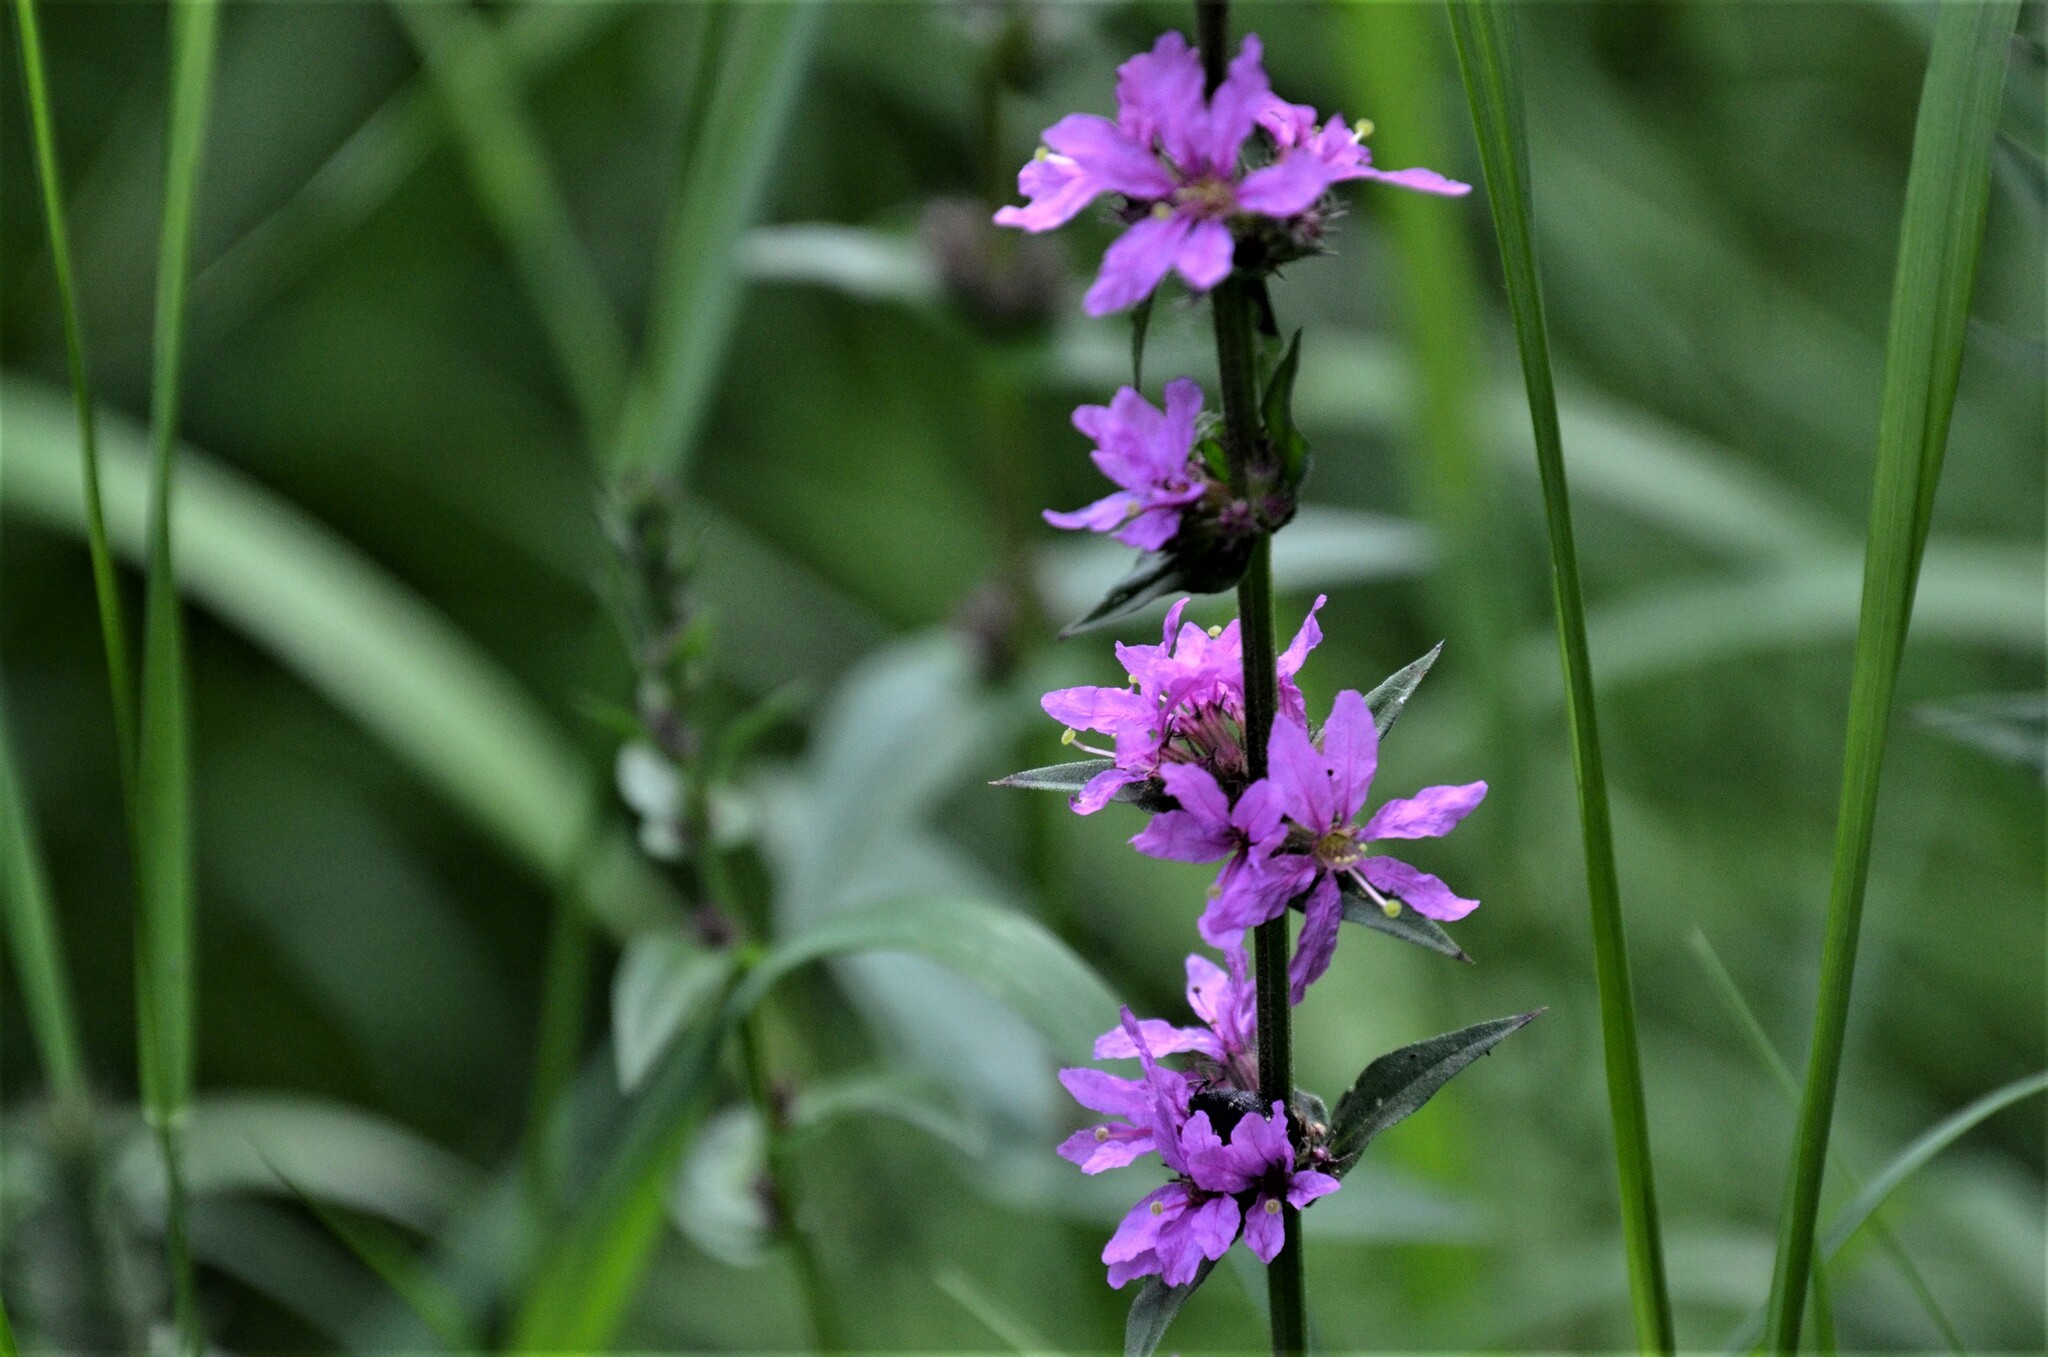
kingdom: Plantae
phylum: Tracheophyta
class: Magnoliopsida
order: Myrtales
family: Lythraceae
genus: Lythrum
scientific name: Lythrum salicaria
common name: Purple loosestrife
